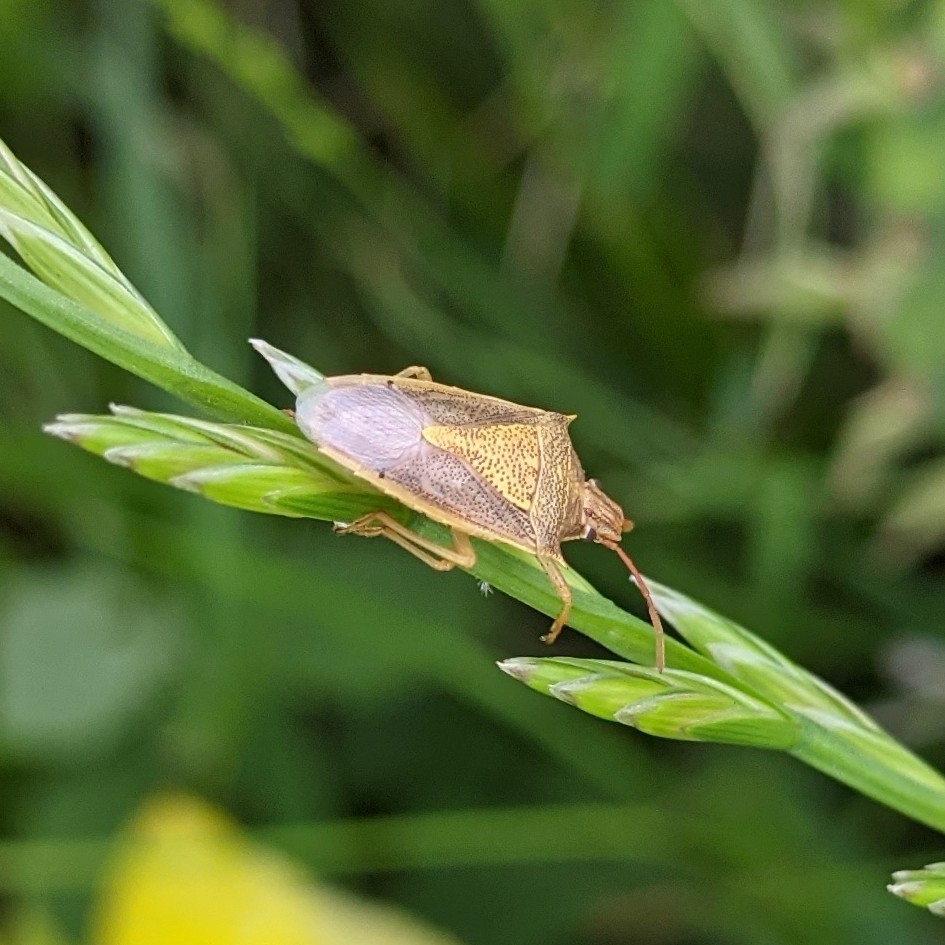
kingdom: Animalia
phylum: Arthropoda
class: Insecta
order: Hemiptera
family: Pentatomidae
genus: Oebalus
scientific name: Oebalus pugnax
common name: Rice stink bug
